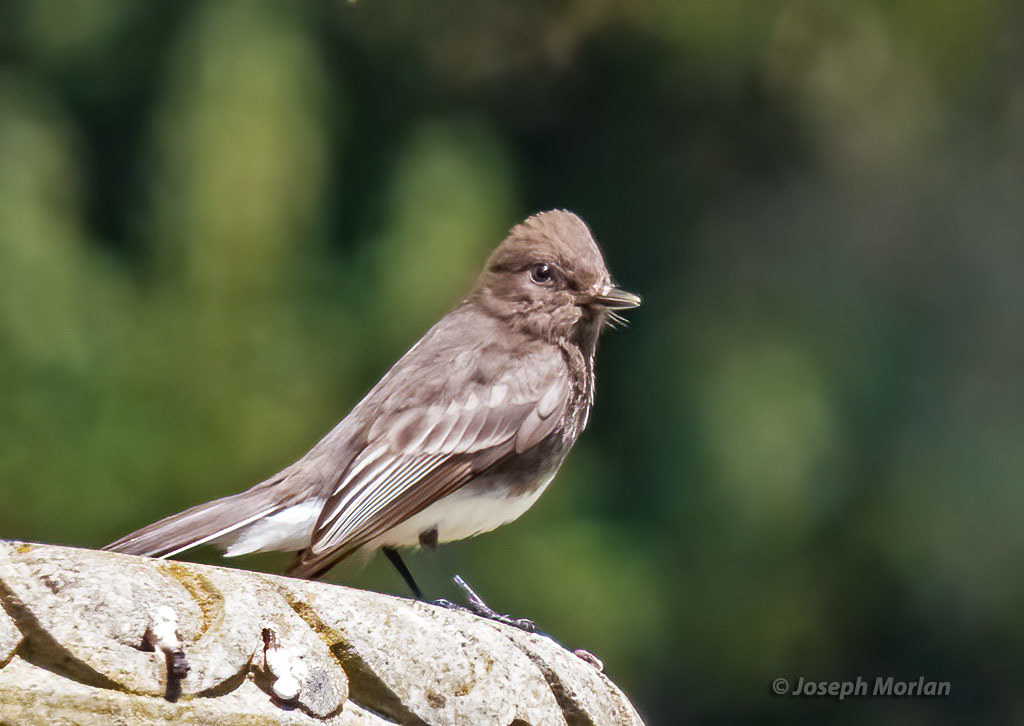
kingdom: Animalia
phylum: Chordata
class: Aves
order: Passeriformes
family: Tyrannidae
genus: Sayornis
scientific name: Sayornis nigricans
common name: Black phoebe
